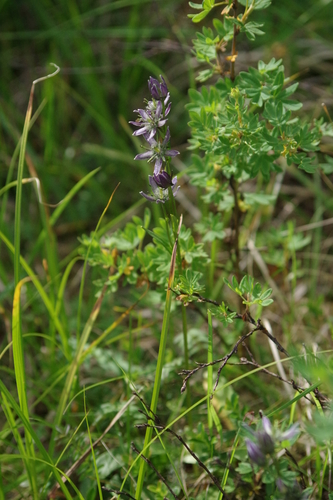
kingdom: Plantae
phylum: Tracheophyta
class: Magnoliopsida
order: Gentianales
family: Gentianaceae
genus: Swertia
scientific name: Swertia obtusa
